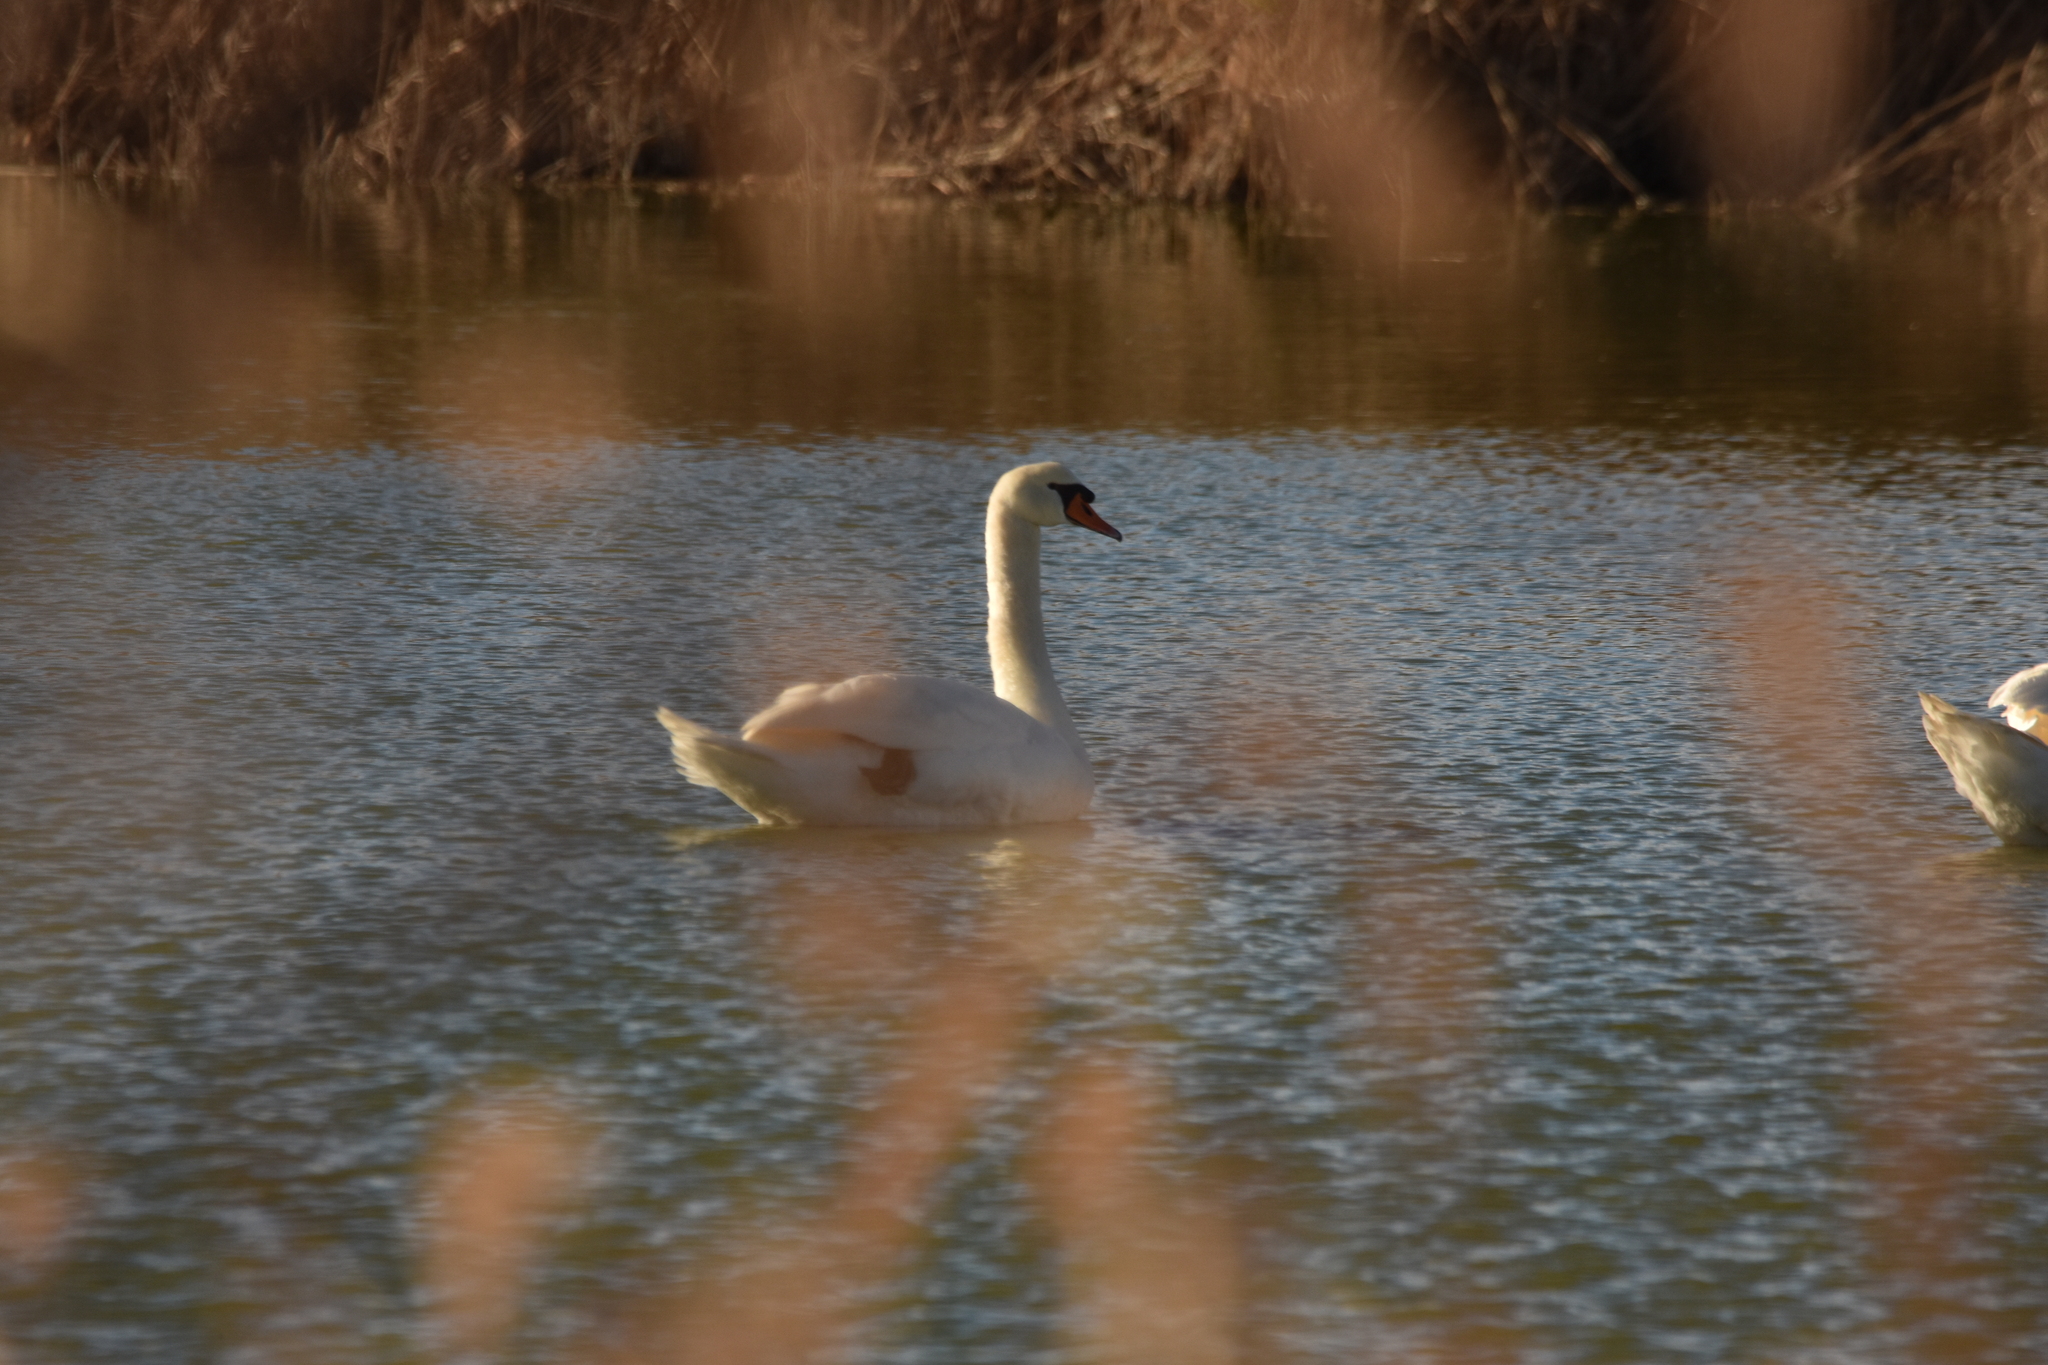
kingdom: Animalia
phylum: Chordata
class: Aves
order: Anseriformes
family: Anatidae
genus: Cygnus
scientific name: Cygnus olor
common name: Mute swan
